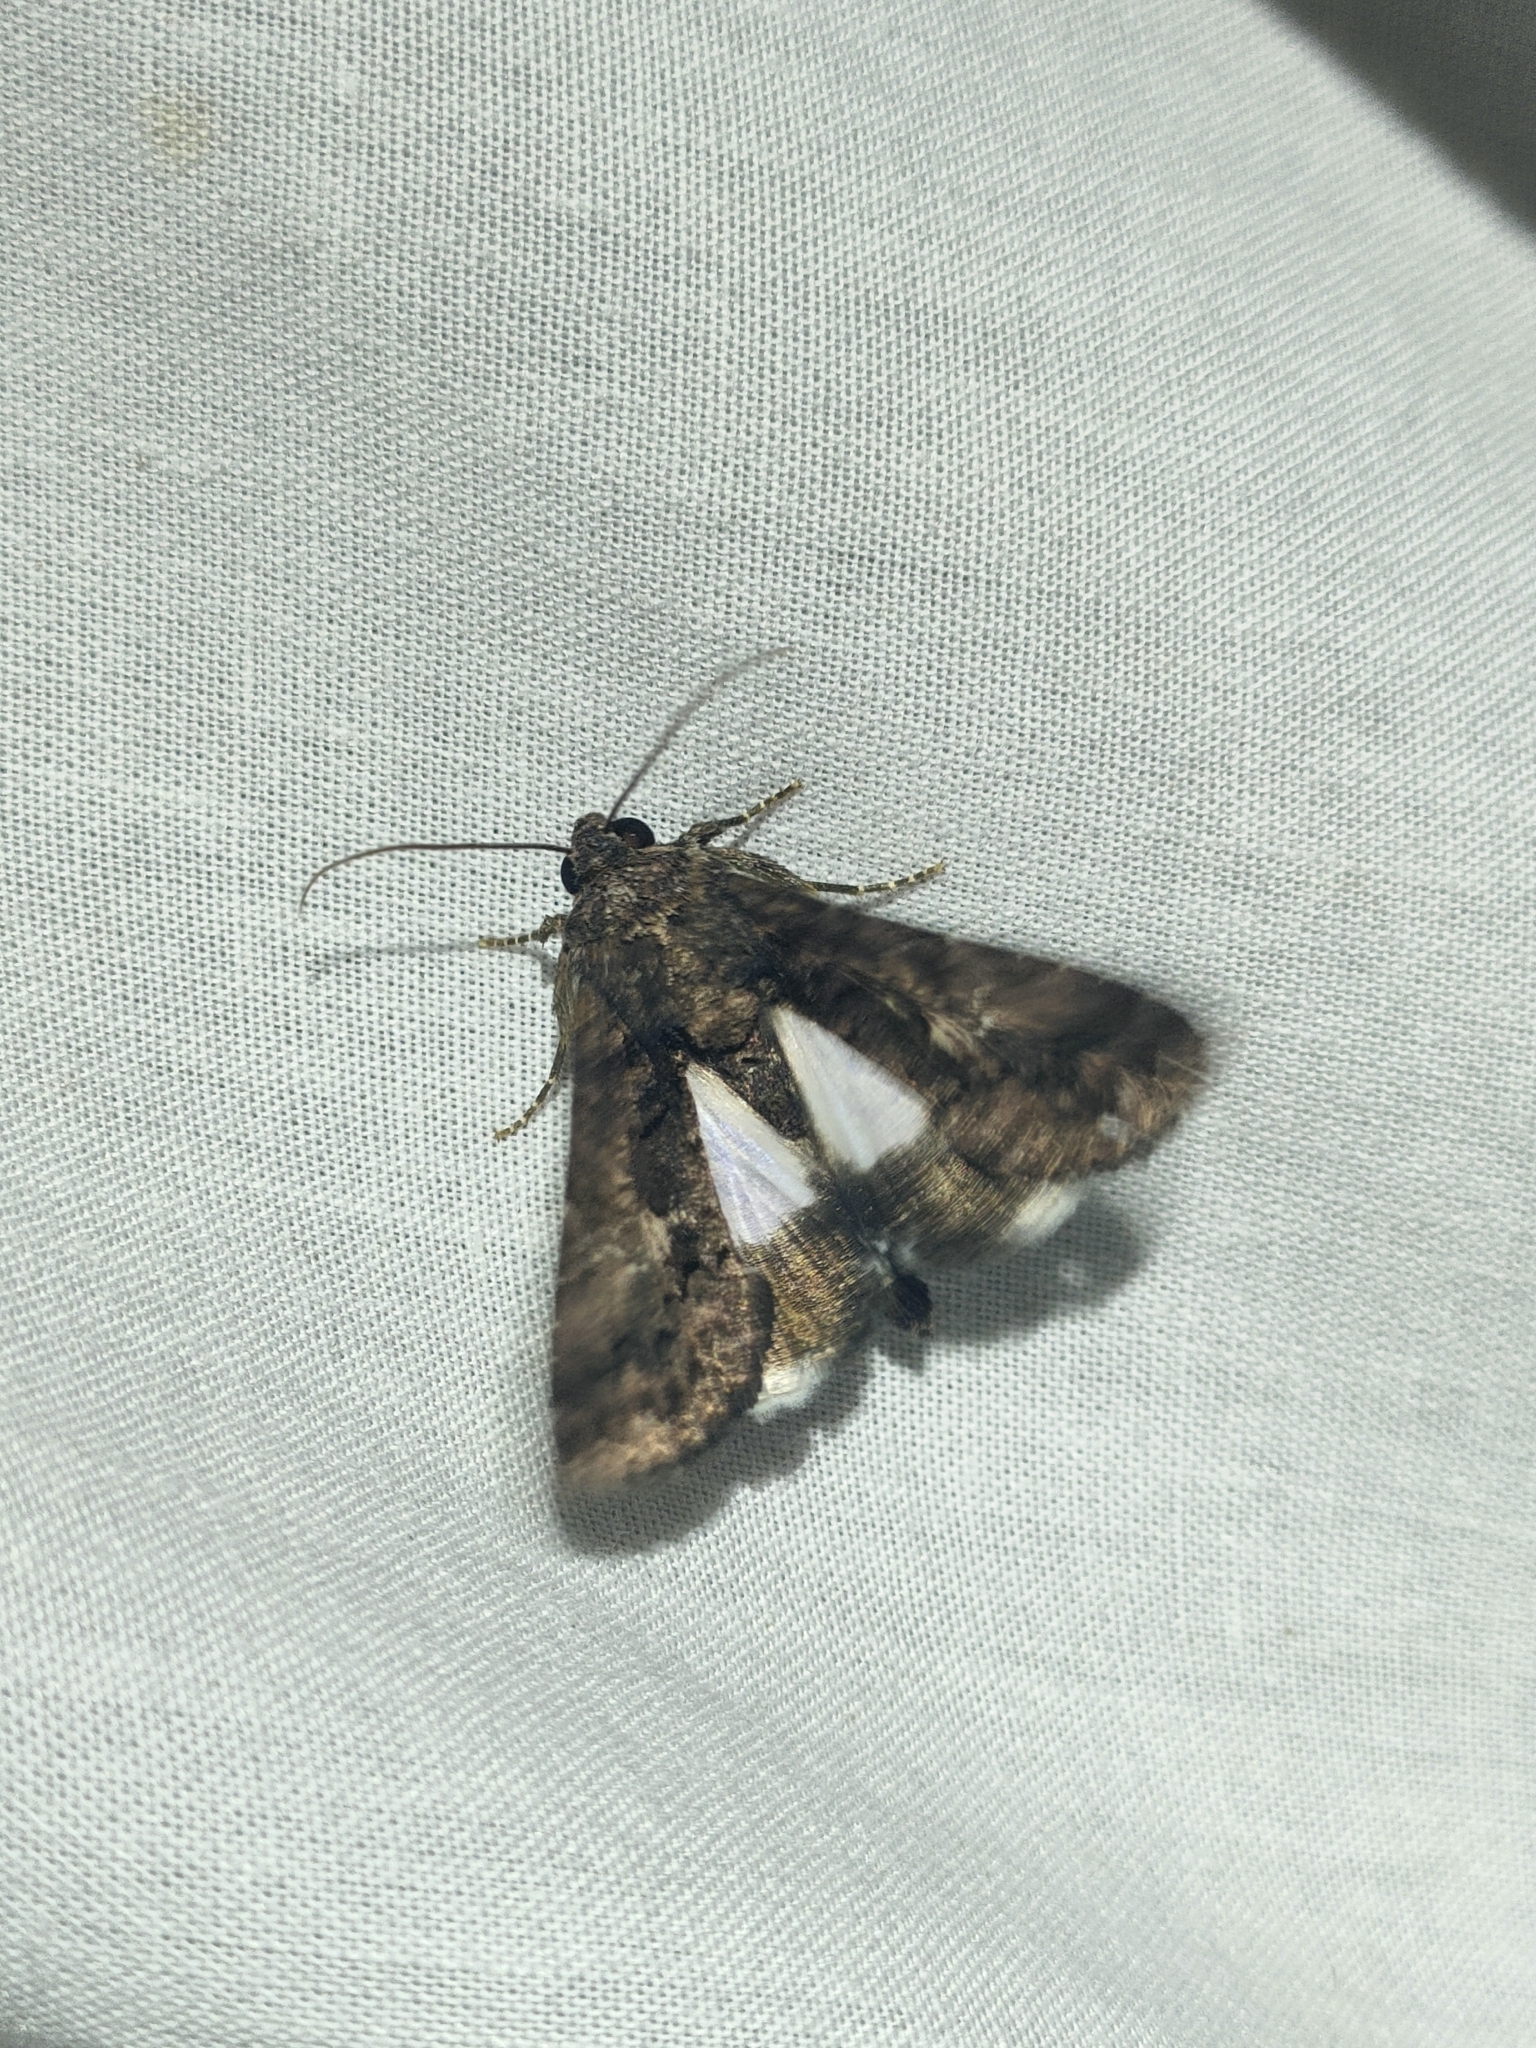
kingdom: Animalia
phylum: Arthropoda
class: Insecta
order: Lepidoptera
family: Noctuidae
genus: Aedia
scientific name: Aedia leucomelas
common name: Sorcerer
